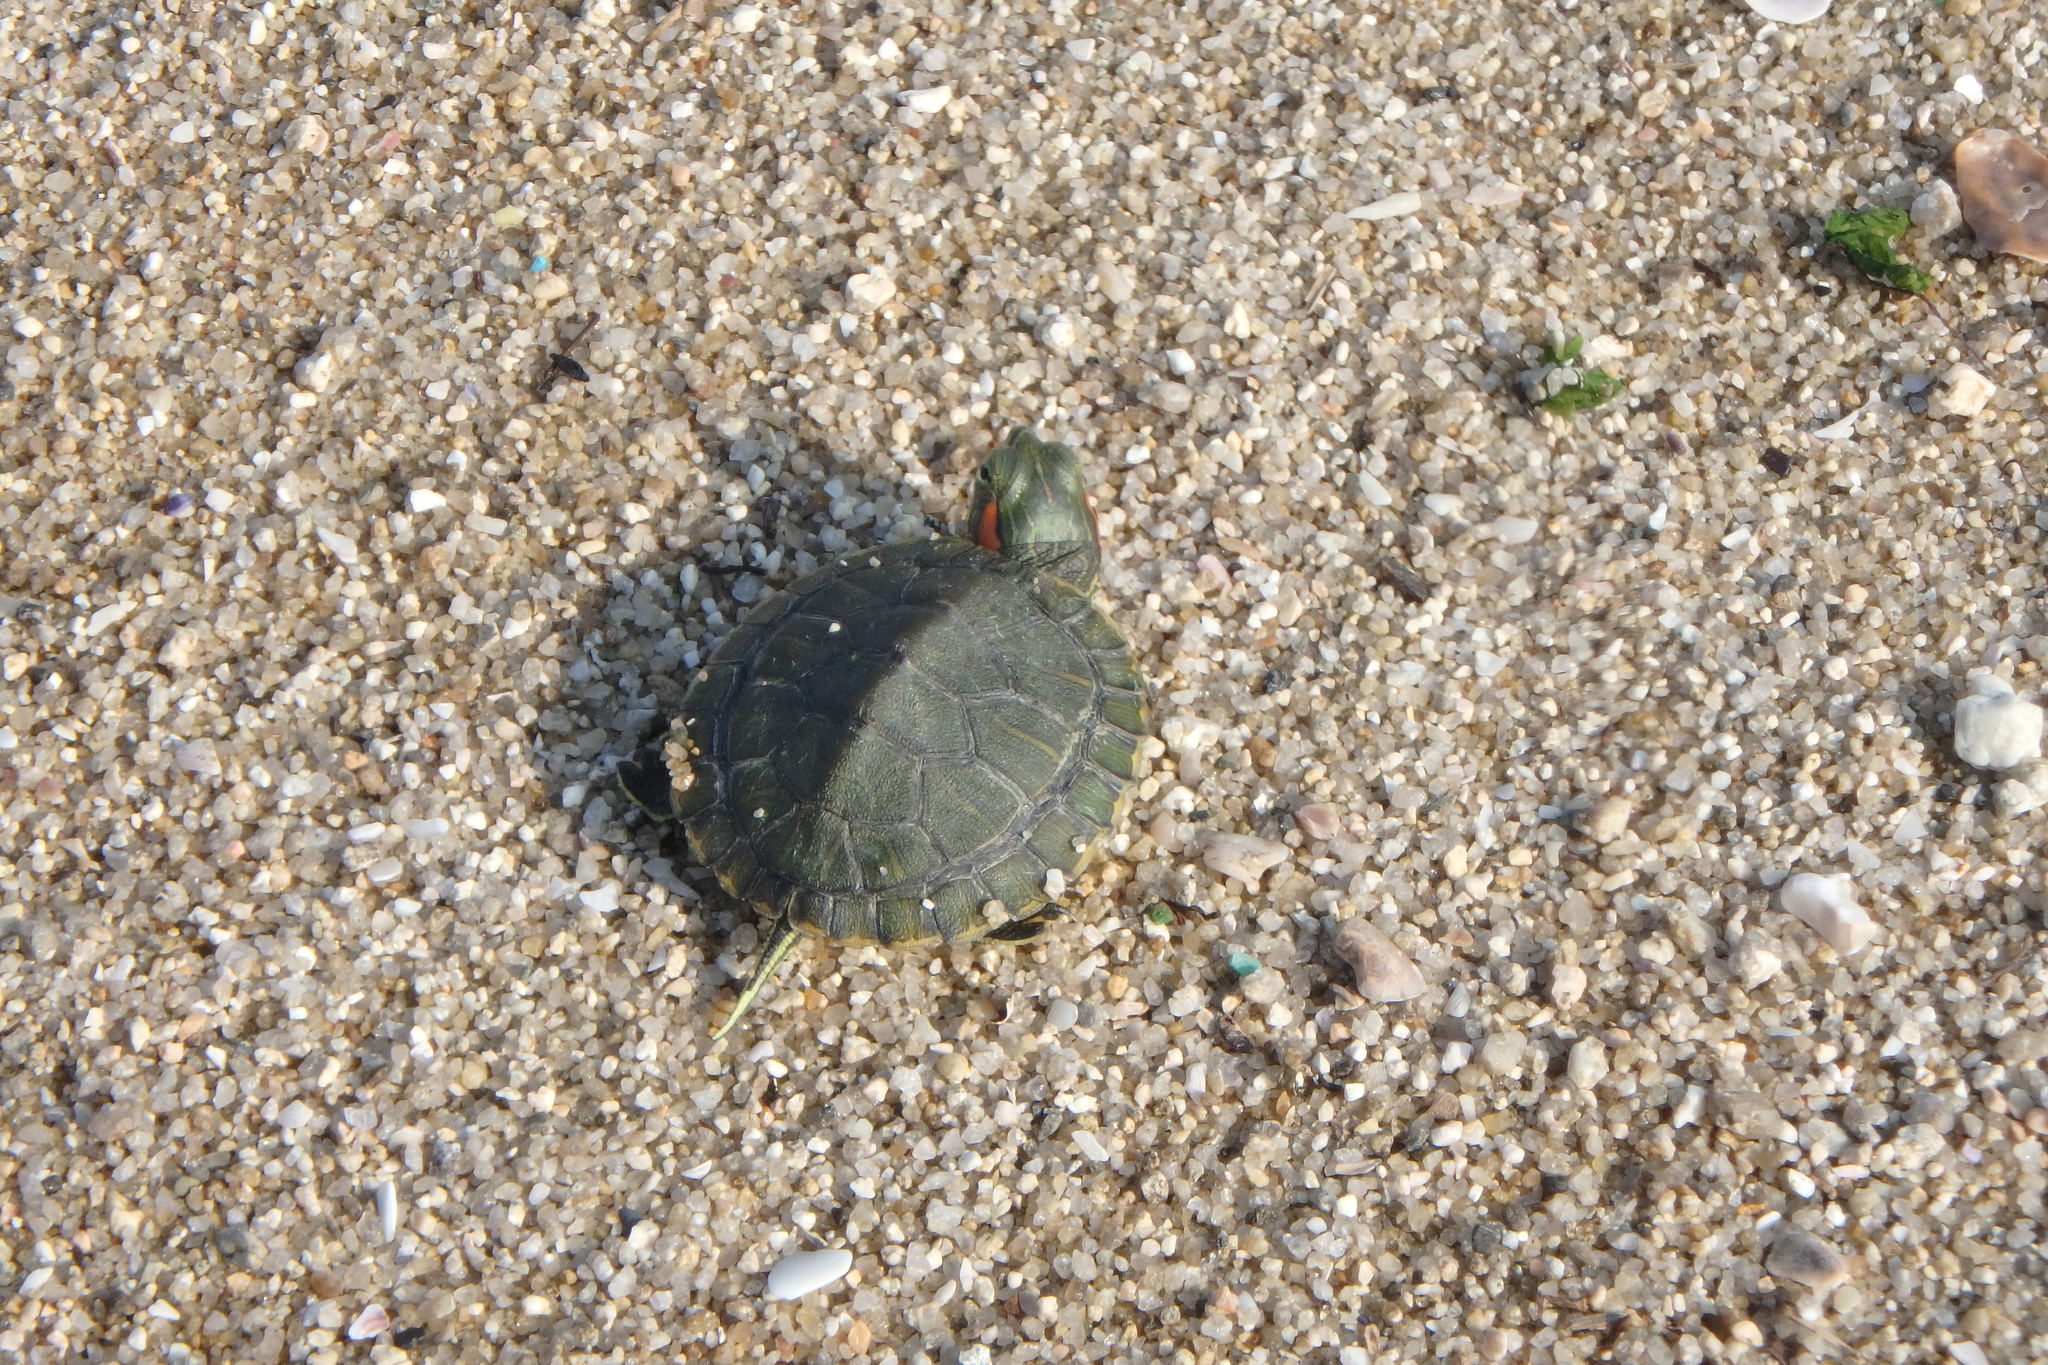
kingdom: Animalia
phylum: Chordata
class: Testudines
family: Emydidae
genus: Trachemys
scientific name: Trachemys scripta
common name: Slider
